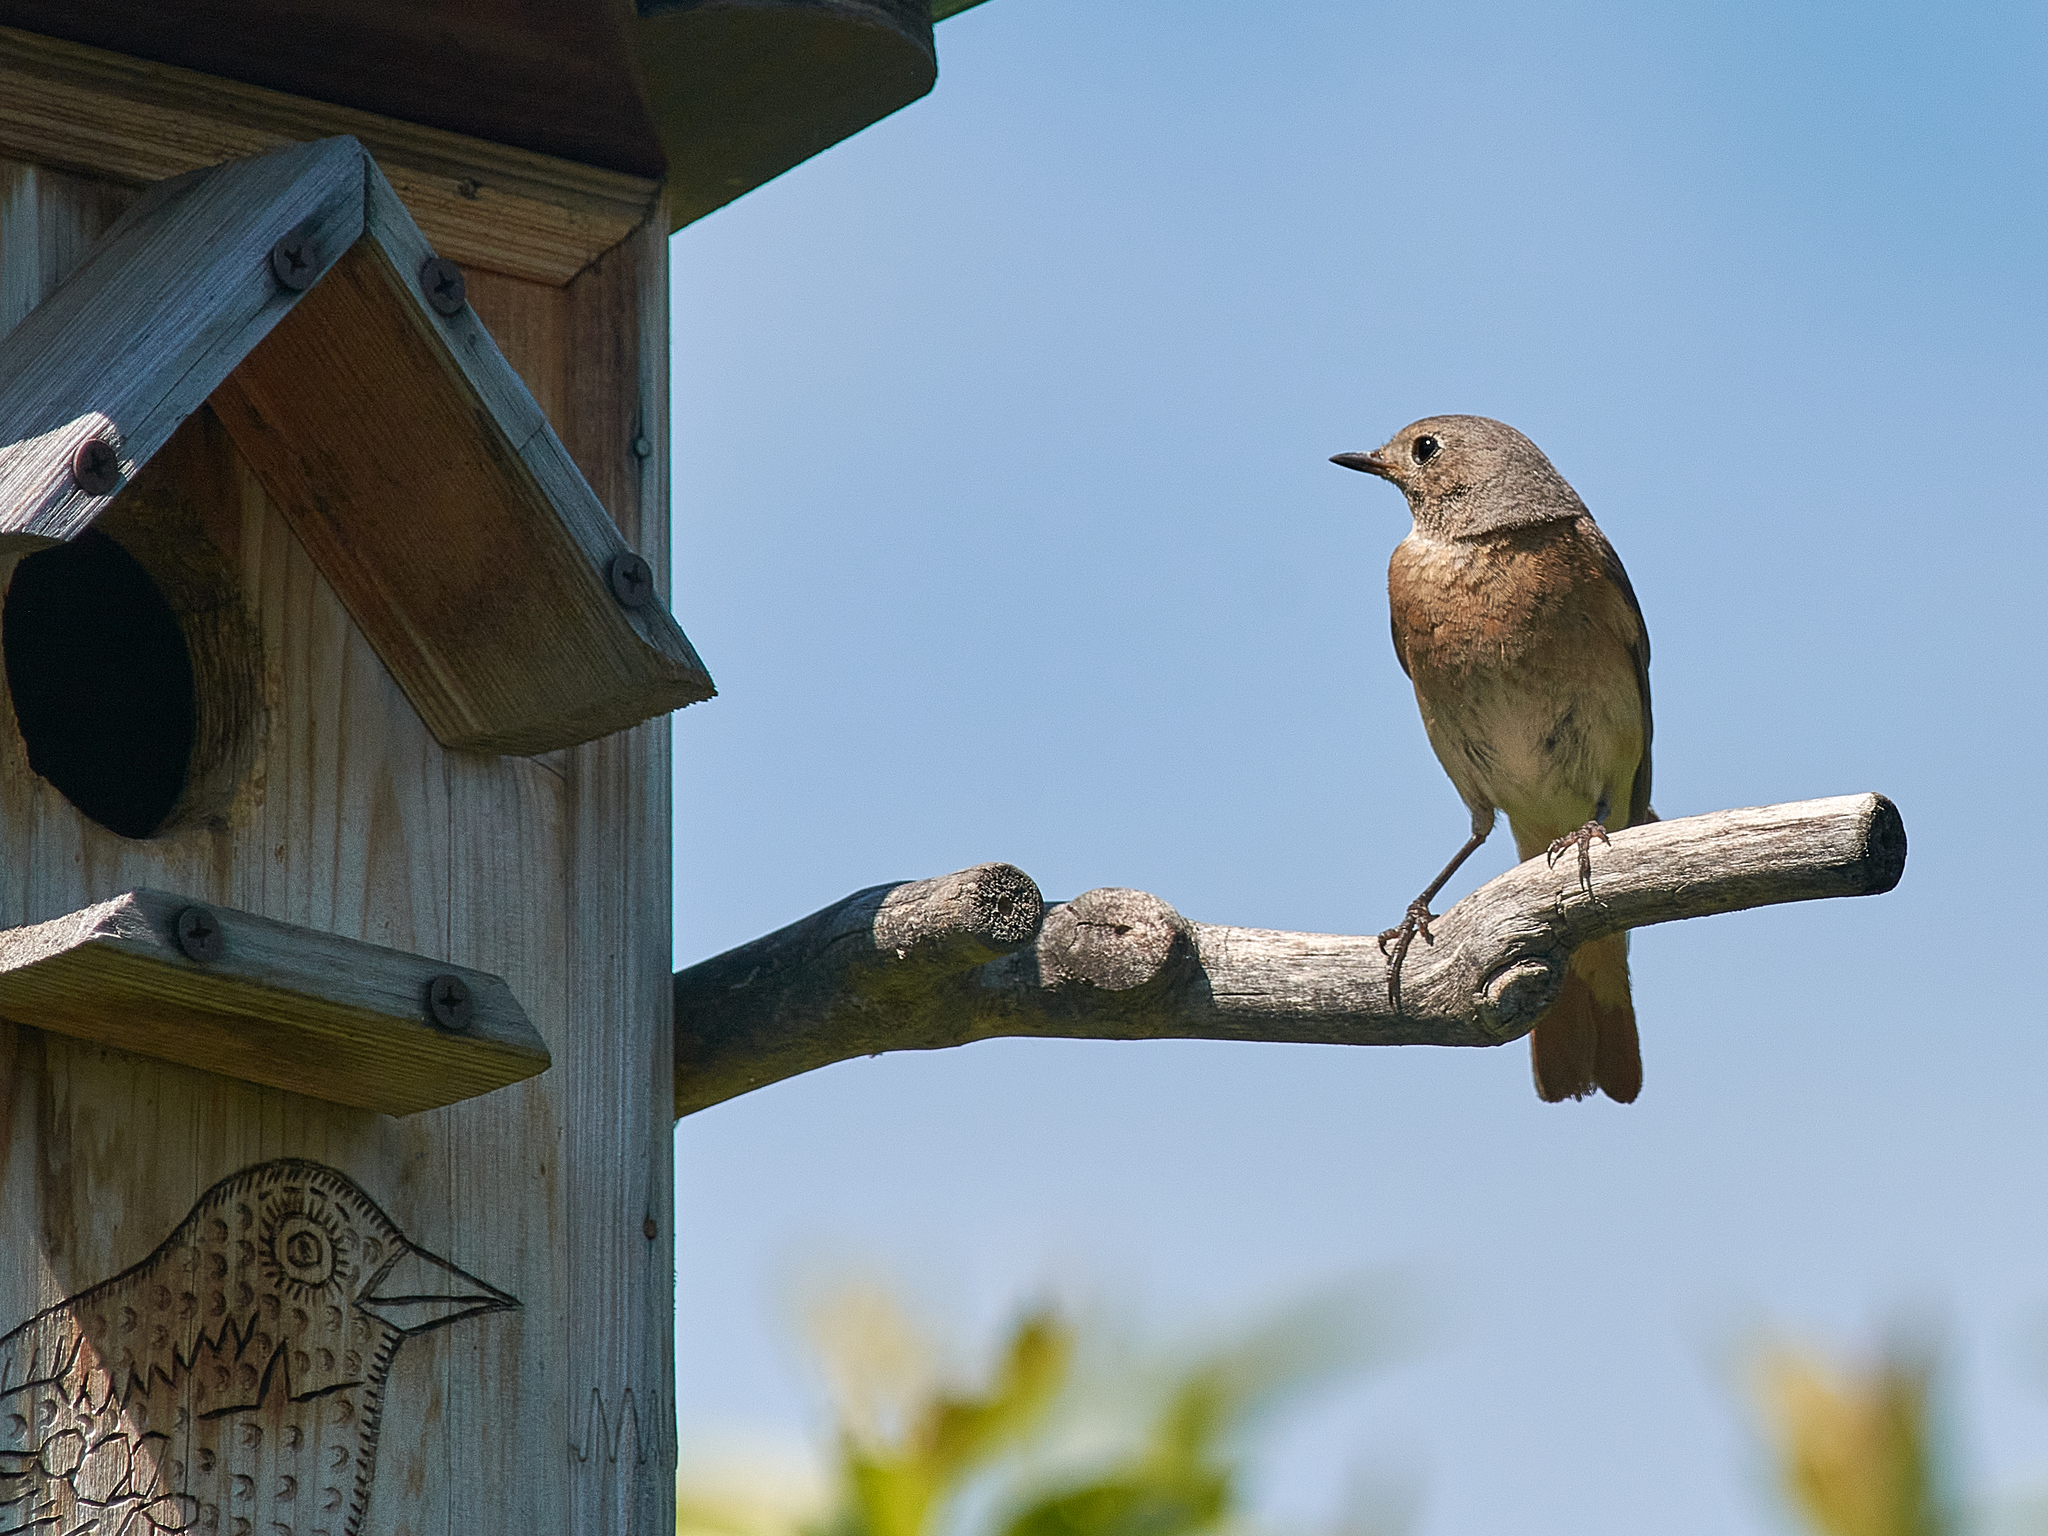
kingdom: Animalia
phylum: Chordata
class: Aves
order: Passeriformes
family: Muscicapidae
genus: Phoenicurus
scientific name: Phoenicurus phoenicurus
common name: Common redstart
